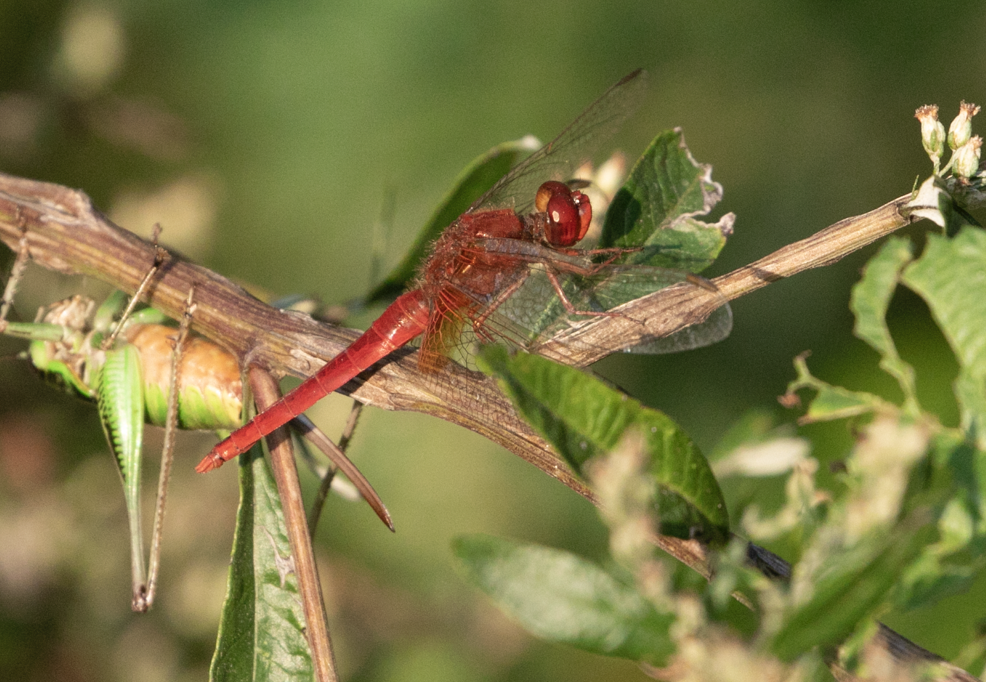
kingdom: Animalia
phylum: Arthropoda
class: Insecta
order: Odonata
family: Libellulidae
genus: Crocothemis
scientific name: Crocothemis erythraea
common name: Scarlet dragonfly
